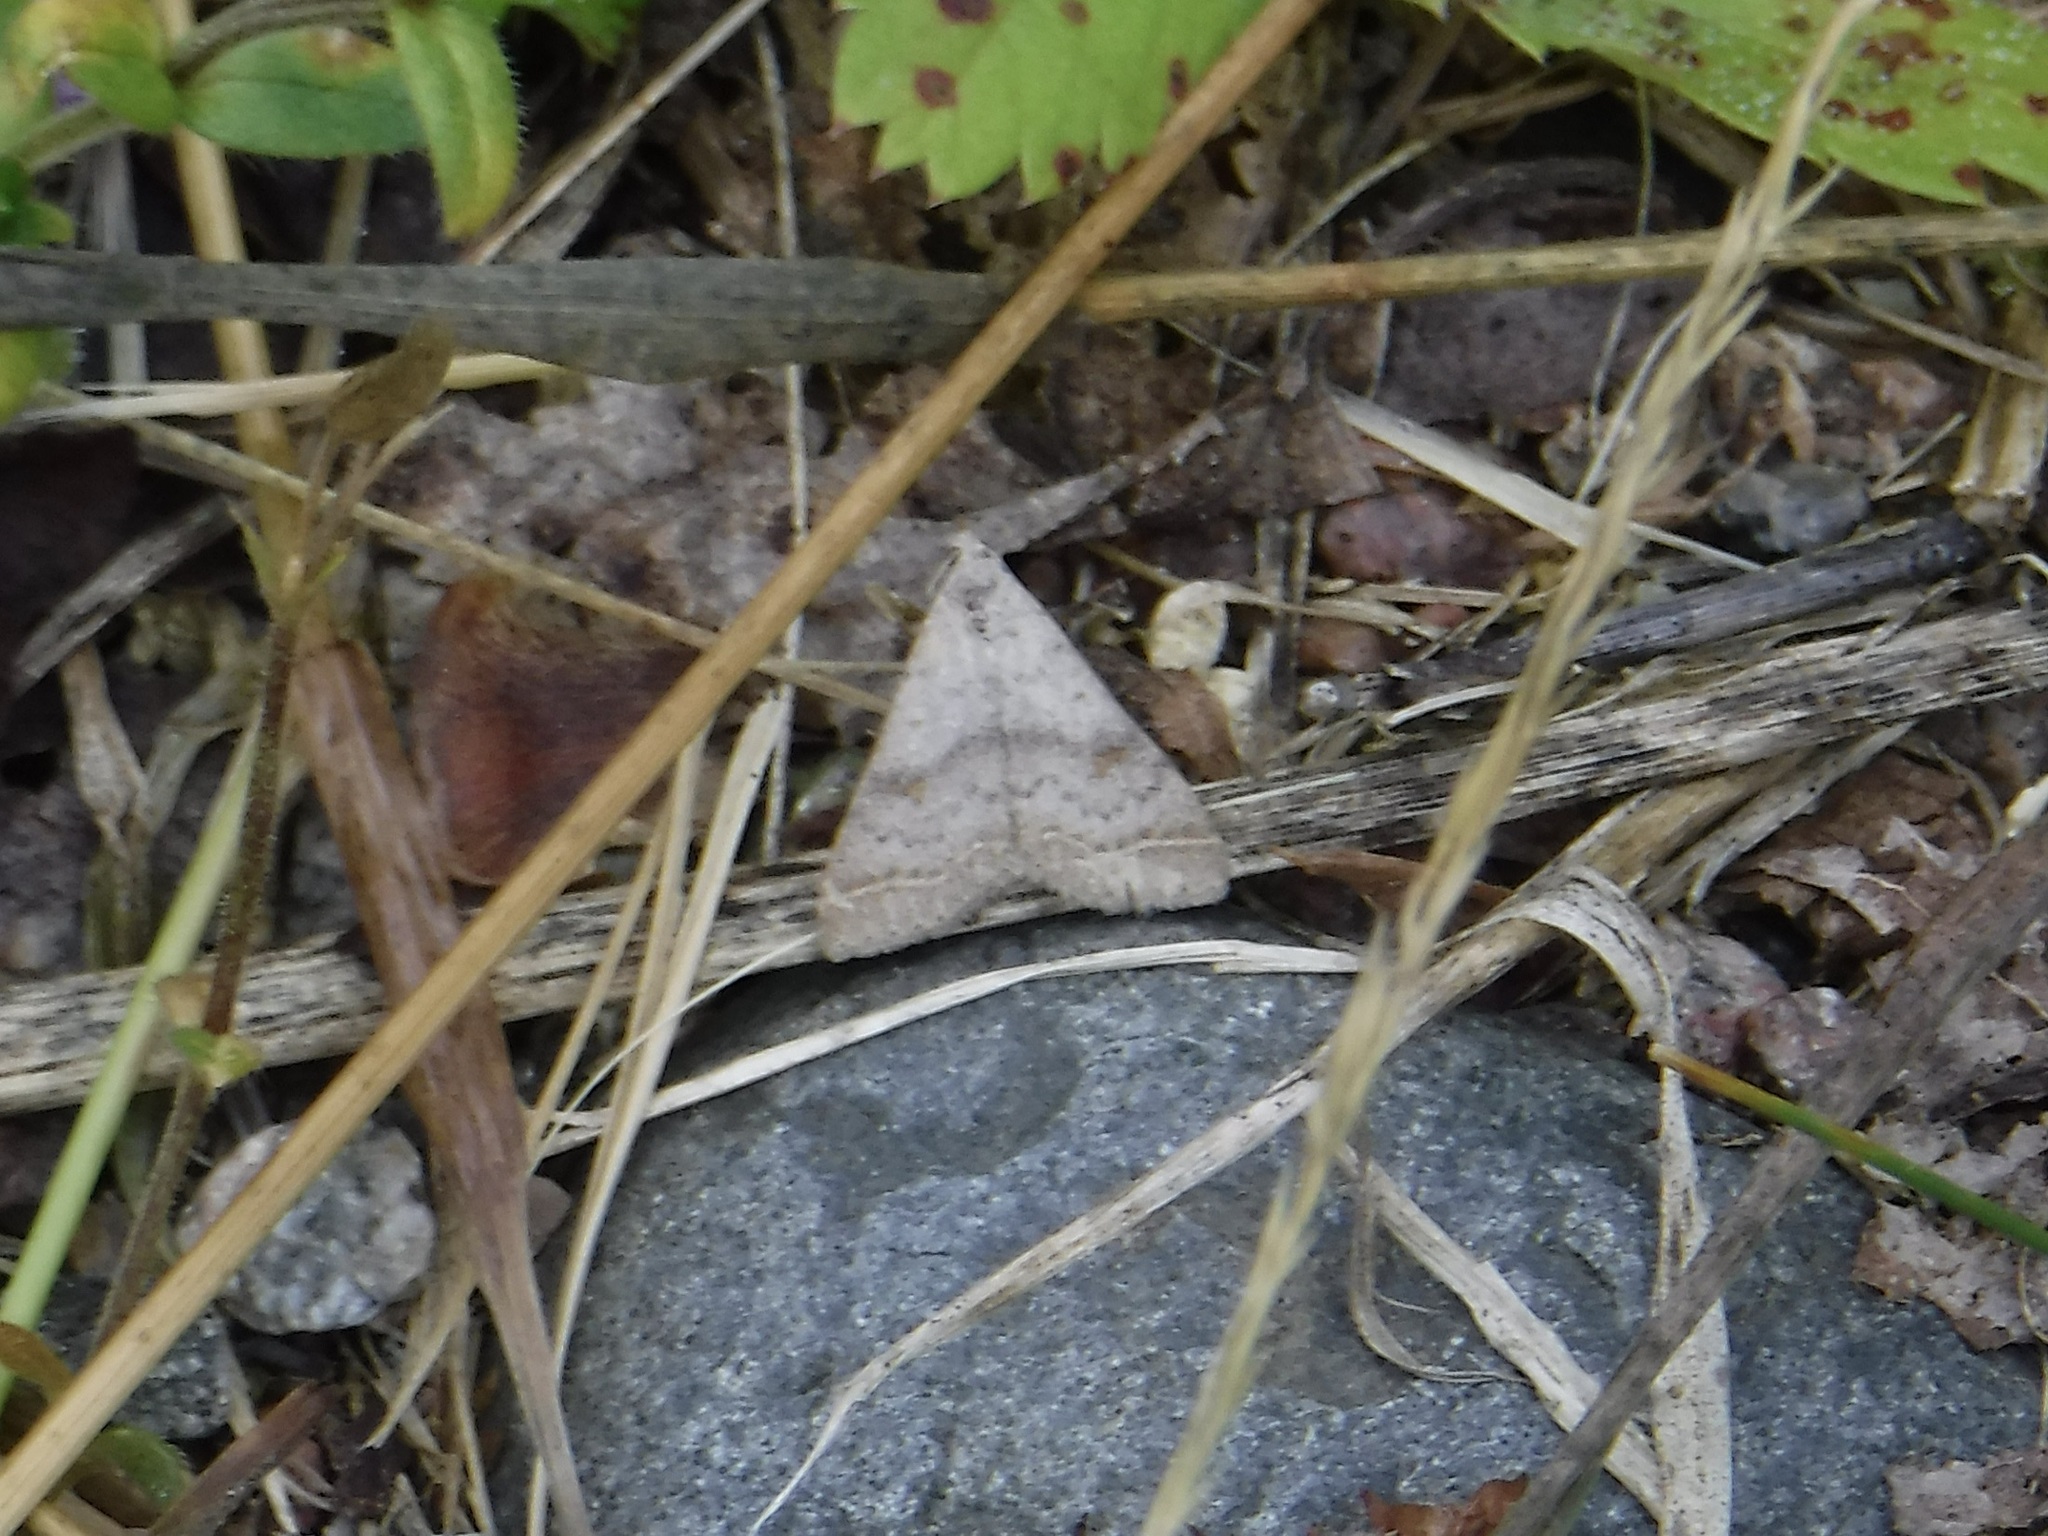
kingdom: Animalia
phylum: Arthropoda
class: Insecta
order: Lepidoptera
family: Erebidae
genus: Bleptina
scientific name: Bleptina caradrinalis
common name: Bent-winged owlet
